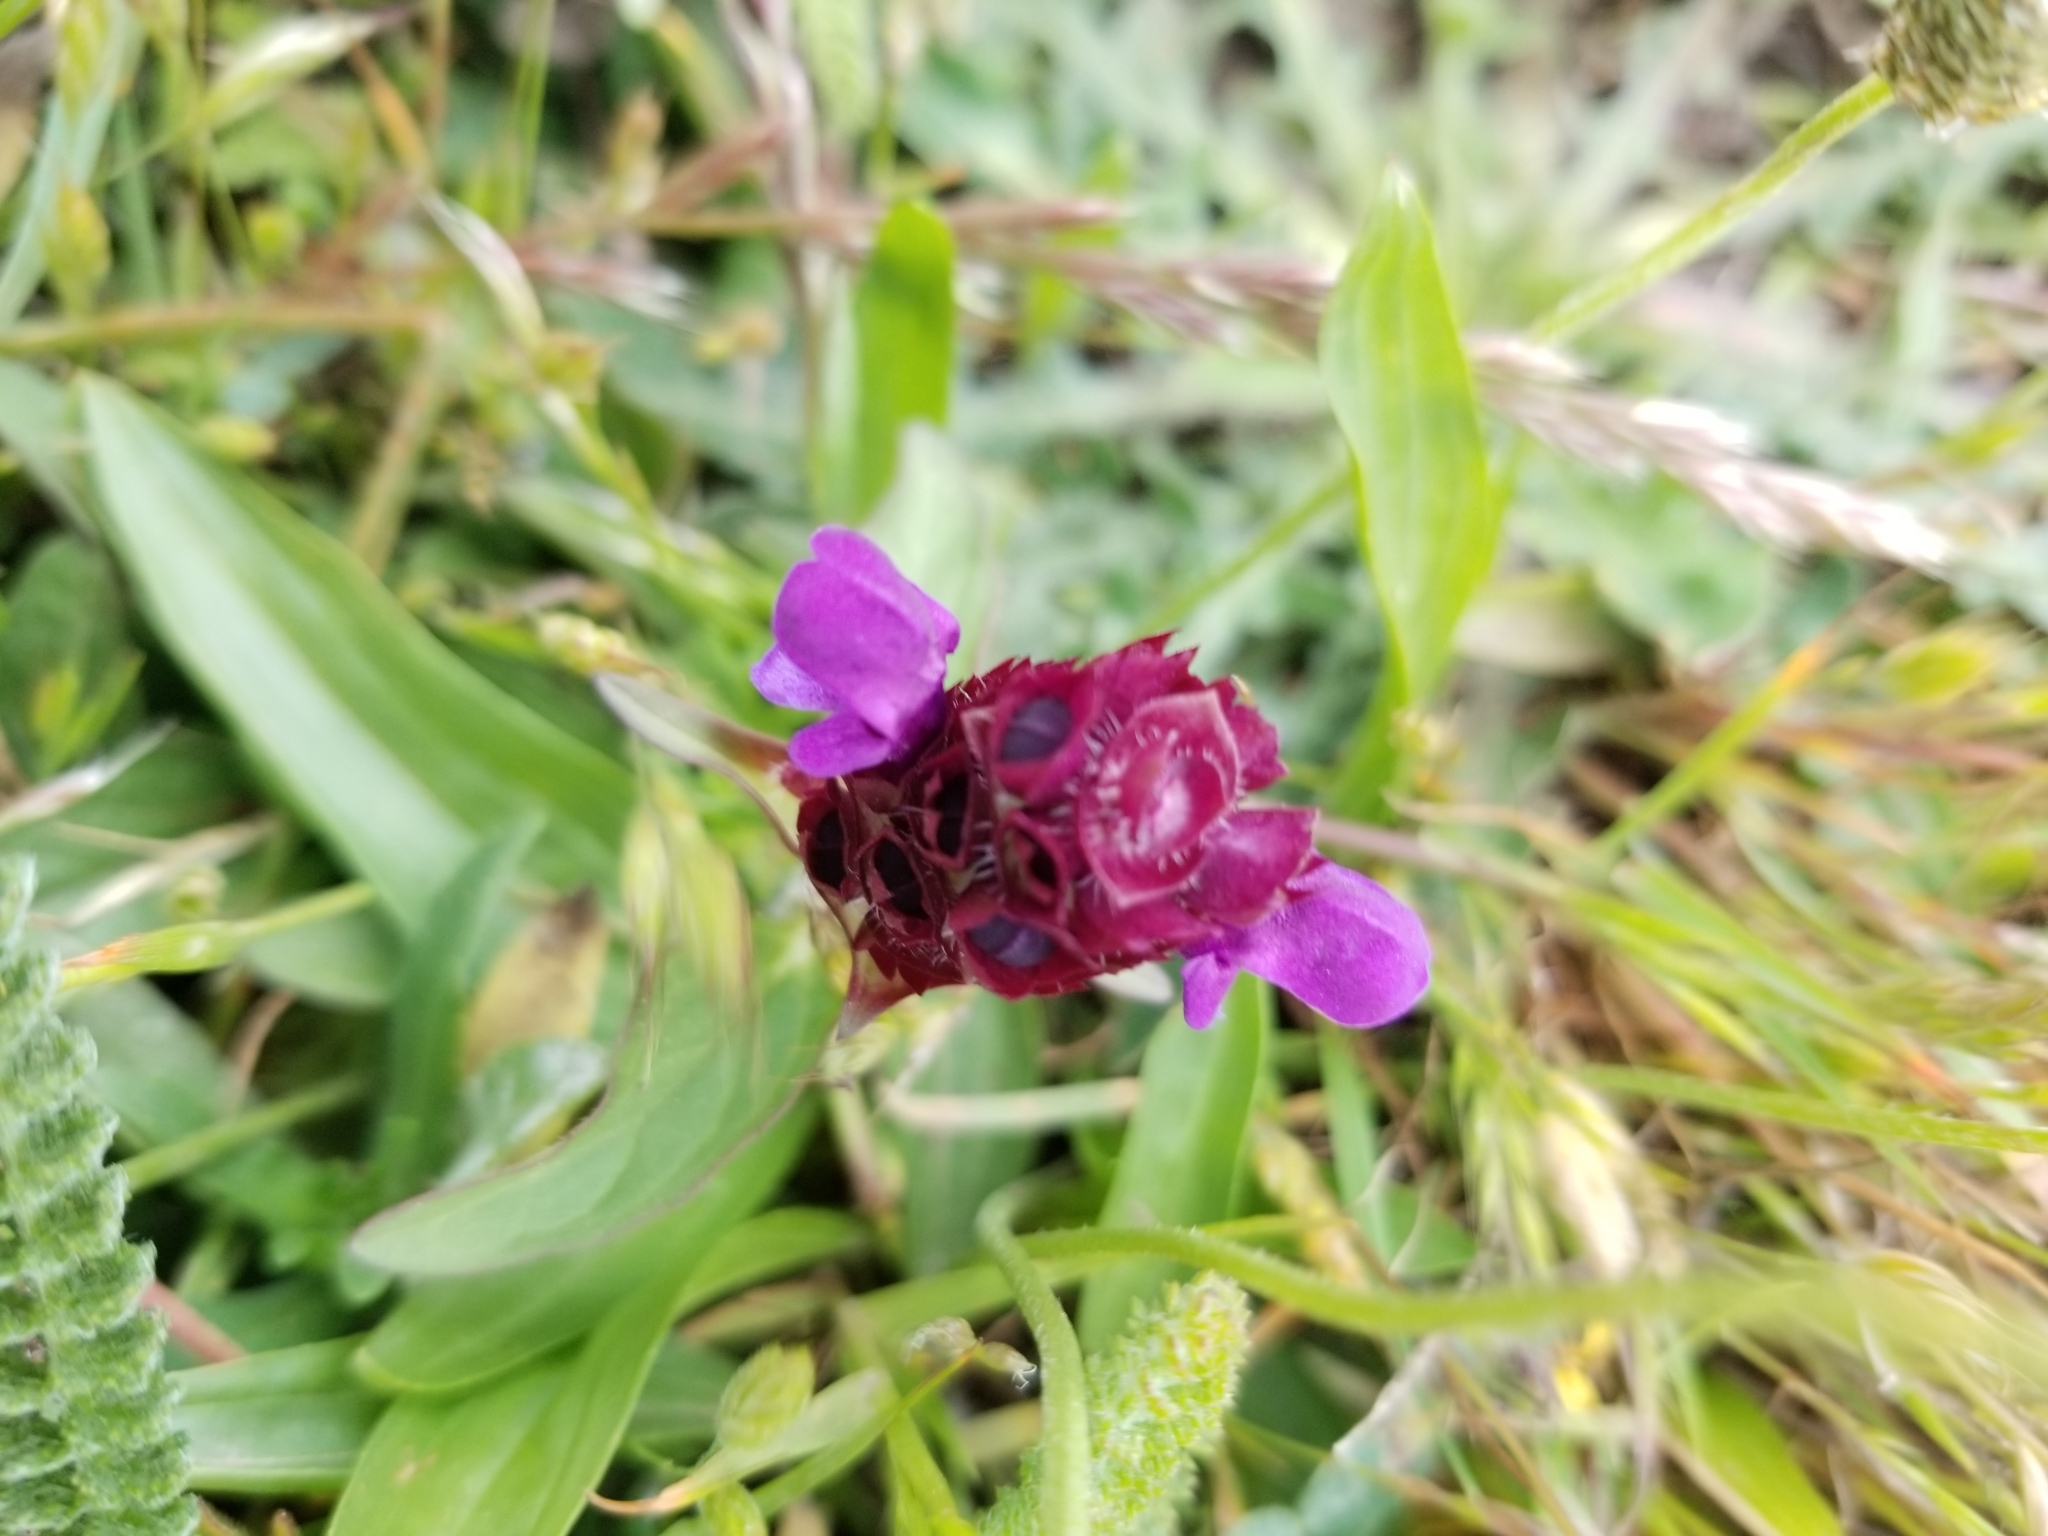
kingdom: Plantae
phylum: Tracheophyta
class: Magnoliopsida
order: Lamiales
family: Lamiaceae
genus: Prunella
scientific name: Prunella vulgaris
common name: Heal-all
